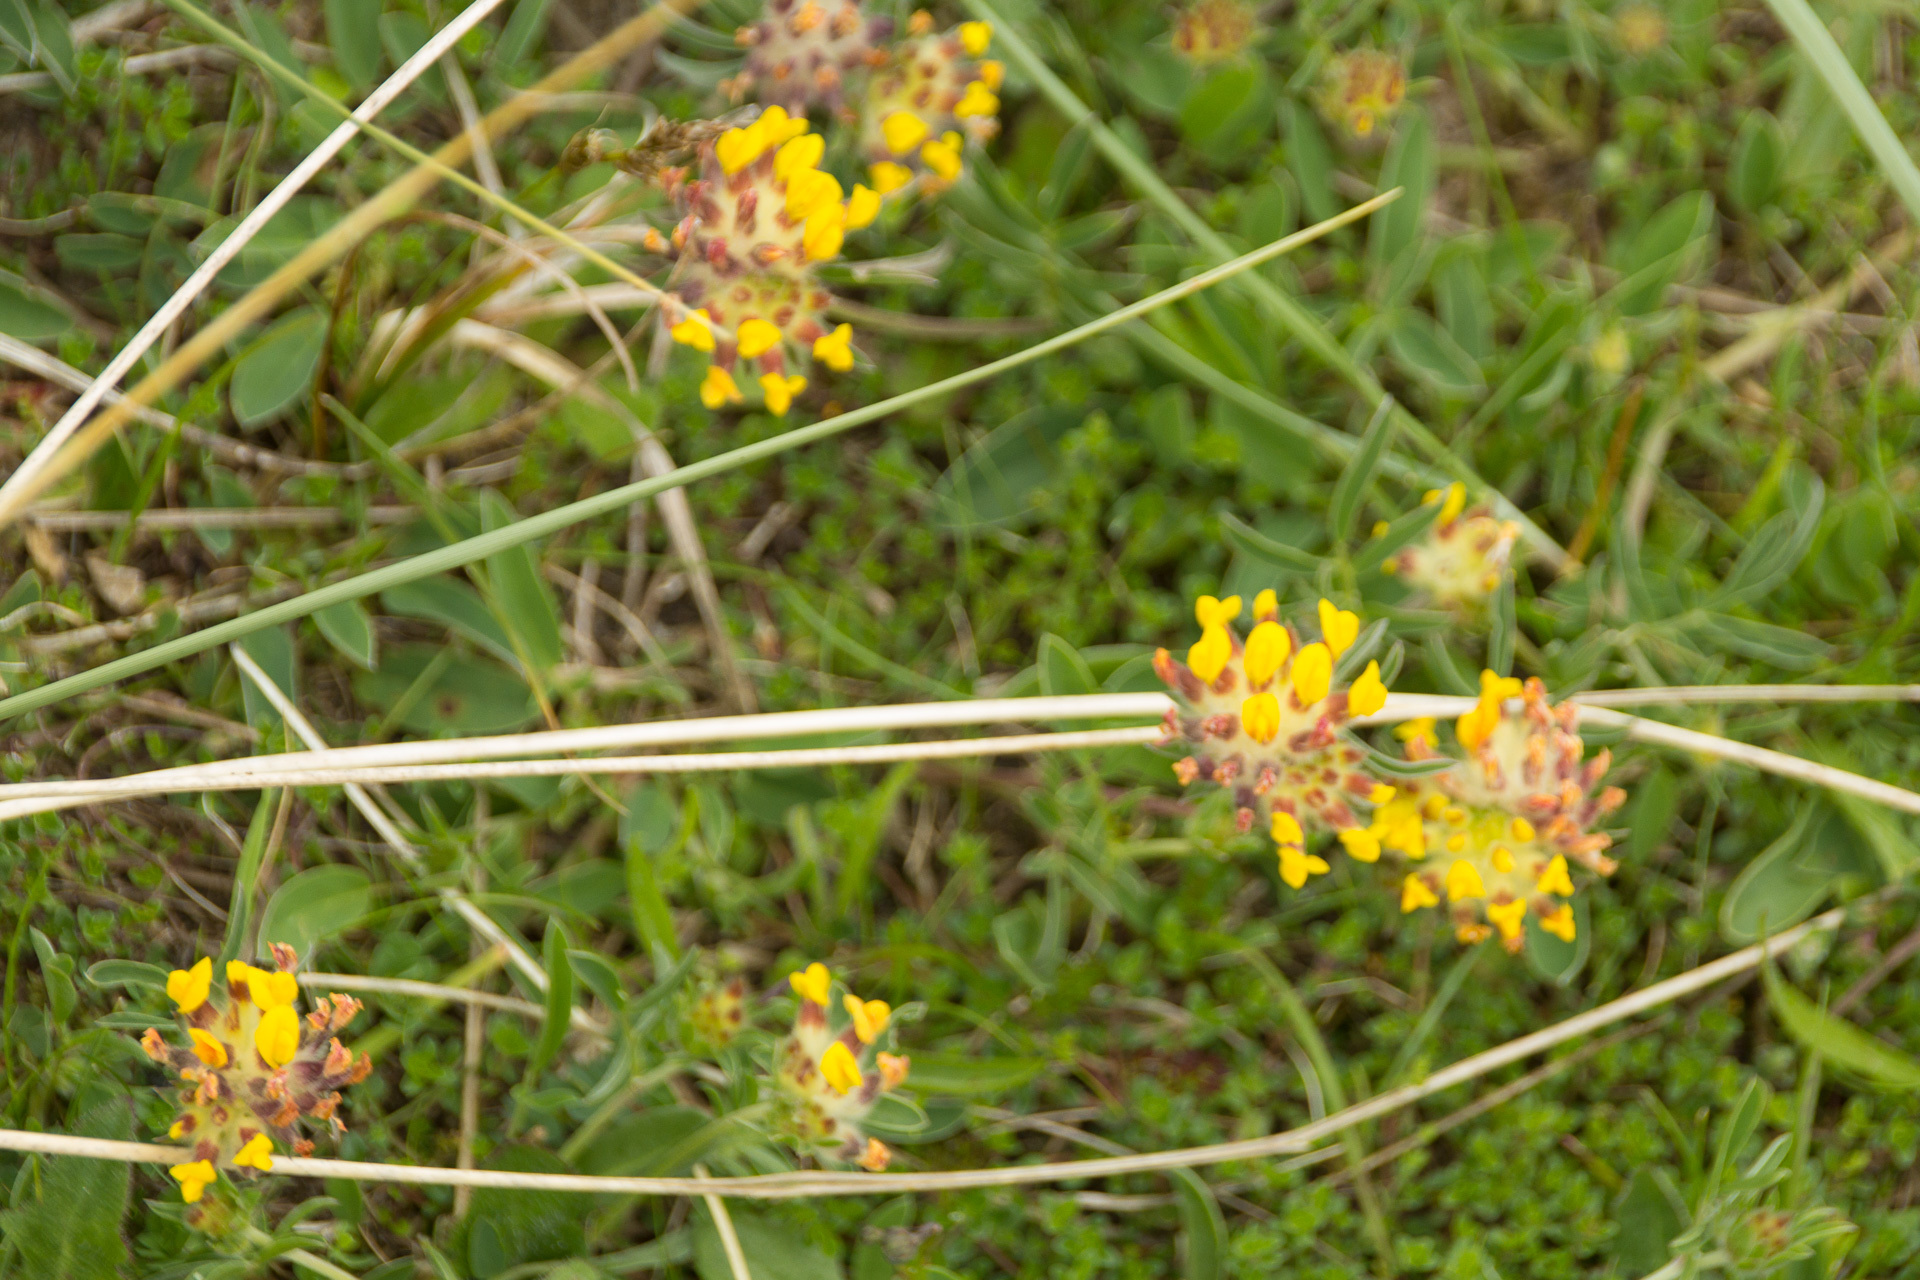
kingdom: Plantae
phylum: Tracheophyta
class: Magnoliopsida
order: Fabales
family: Fabaceae
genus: Anthyllis
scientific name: Anthyllis vulneraria
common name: Kidney vetch
